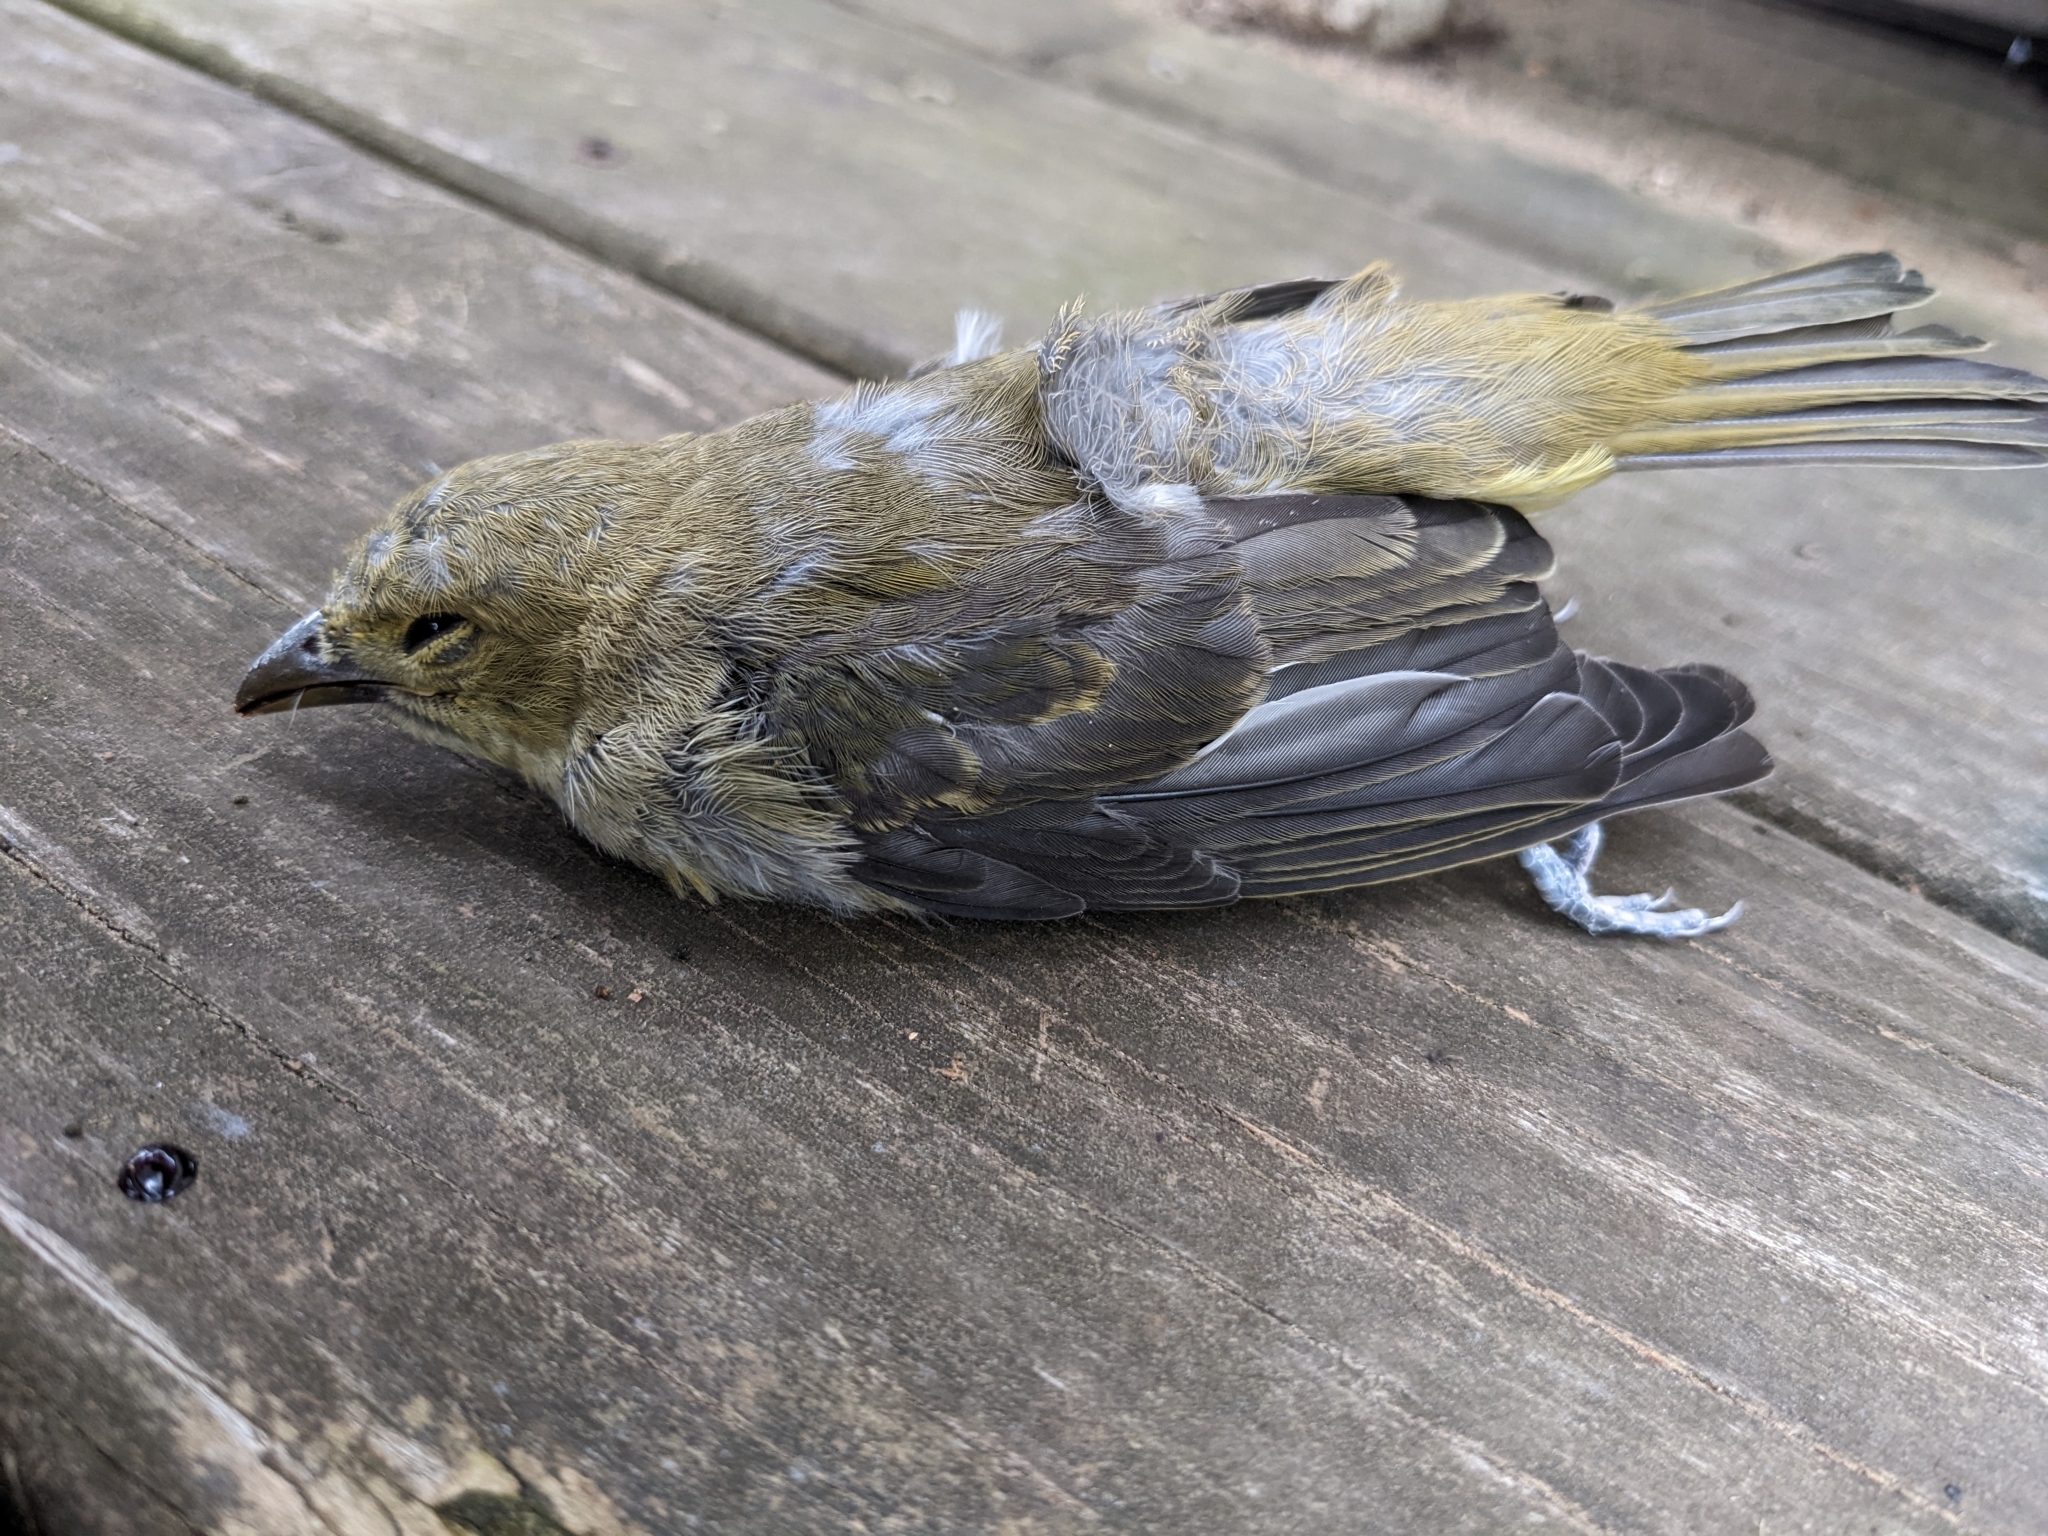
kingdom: Animalia
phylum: Chordata
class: Aves
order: Passeriformes
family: Cardinalidae
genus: Piranga
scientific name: Piranga olivacea
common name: Scarlet tanager
